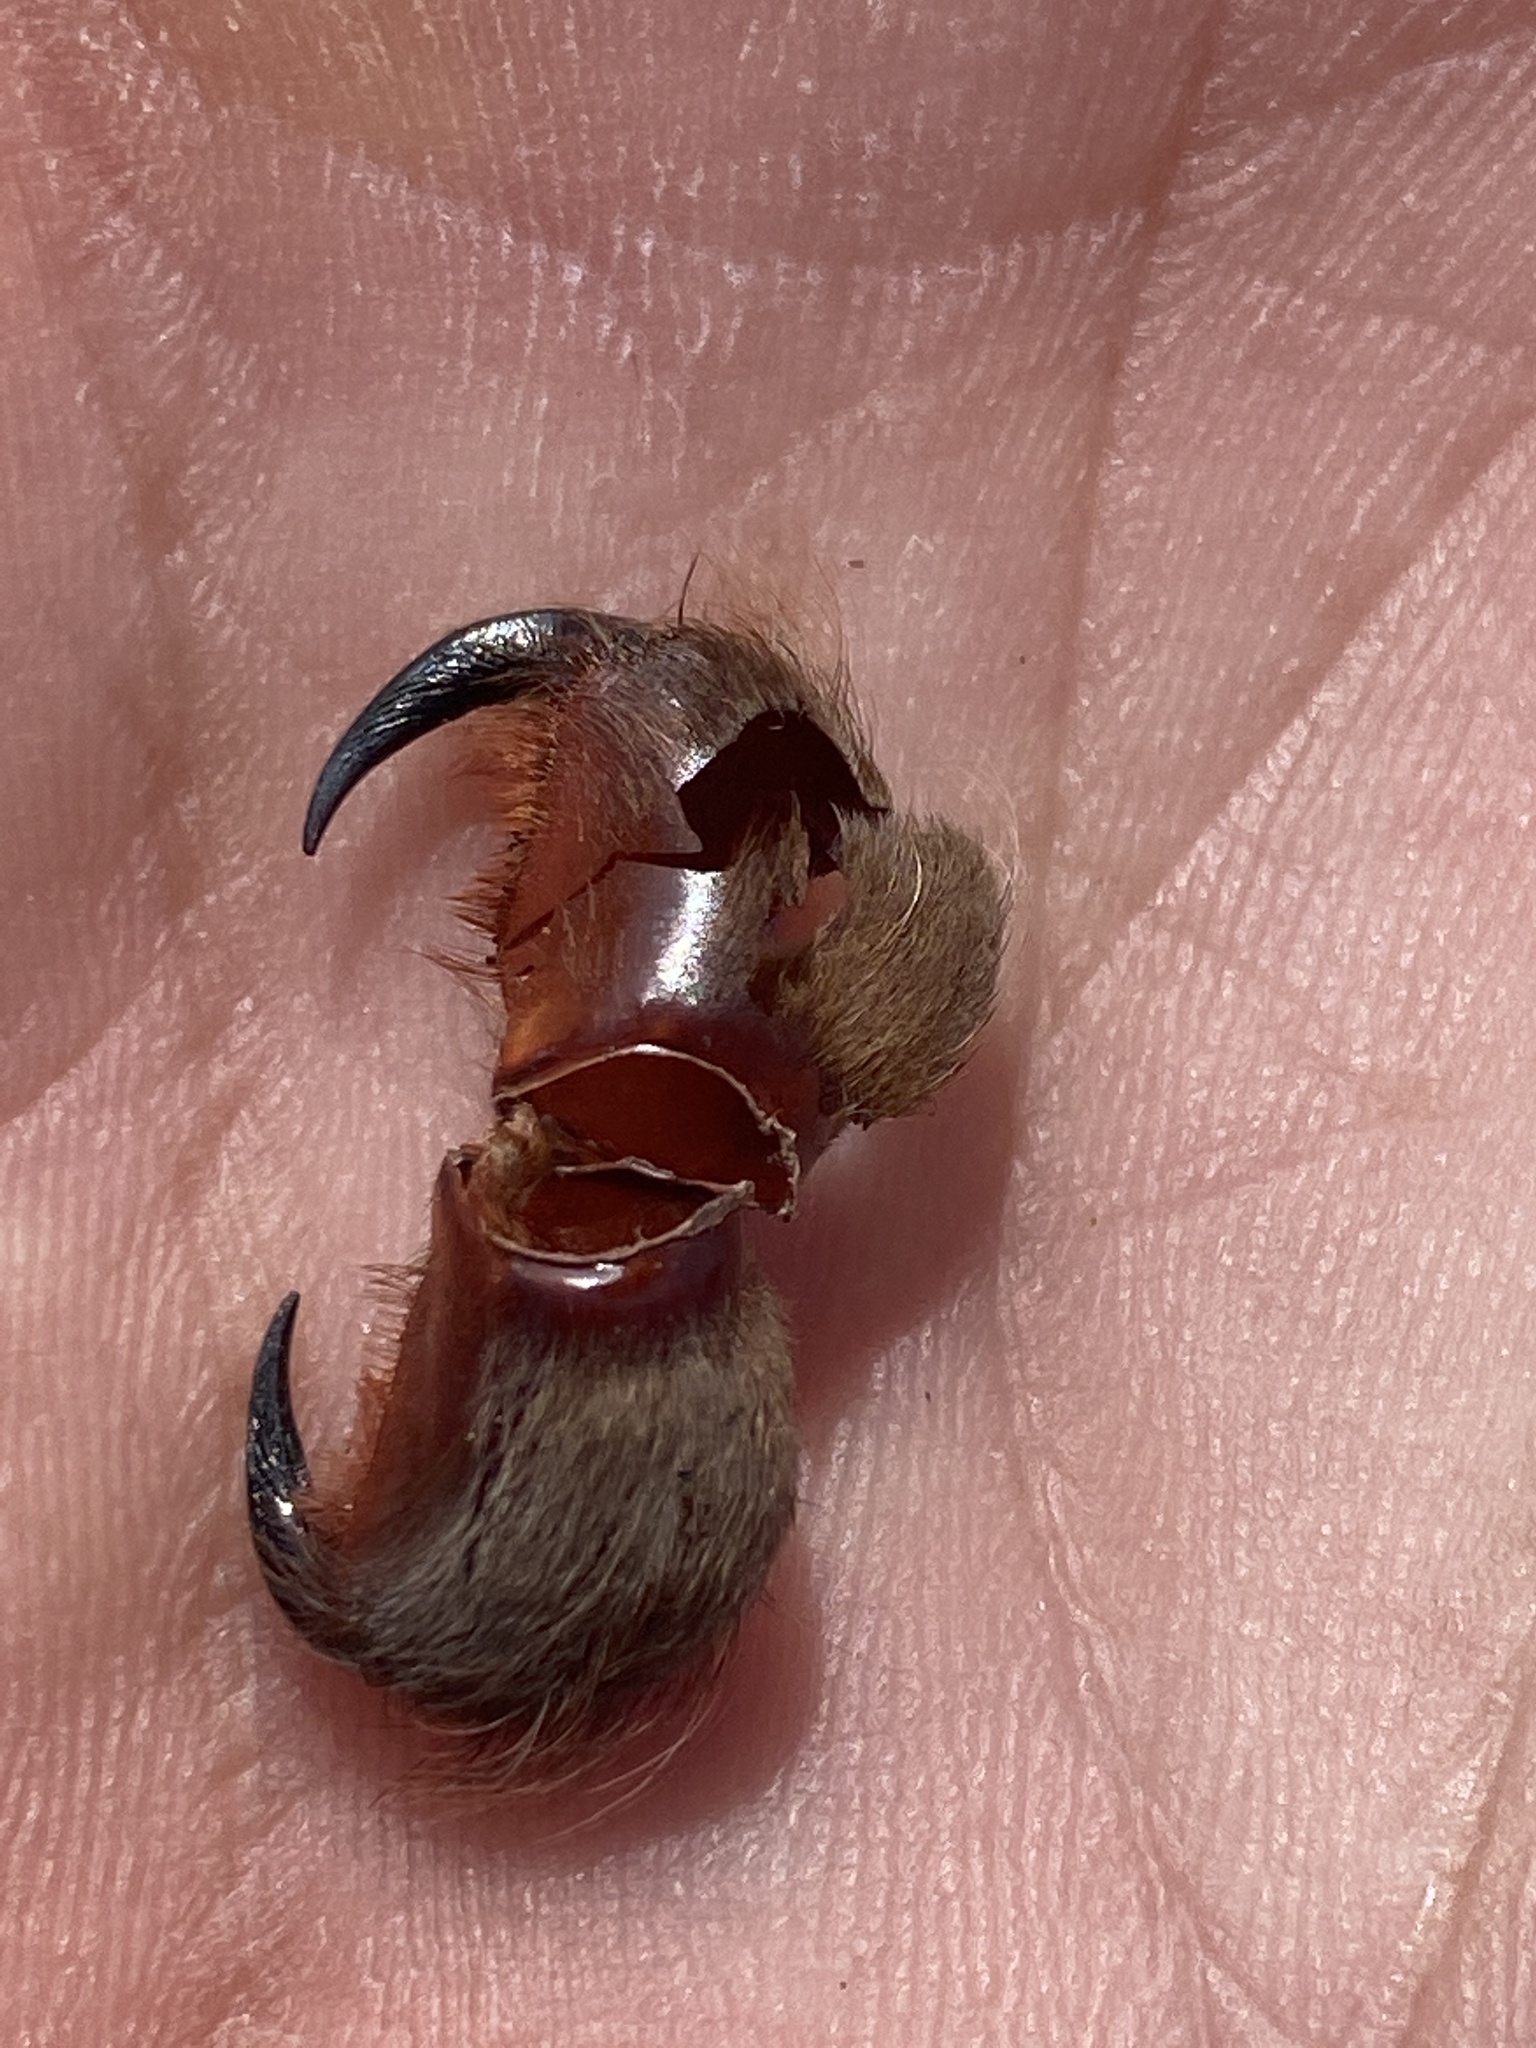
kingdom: Animalia
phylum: Arthropoda
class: Arachnida
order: Araneae
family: Theraphosidae
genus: Aphonopelma
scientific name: Aphonopelma hentzi
